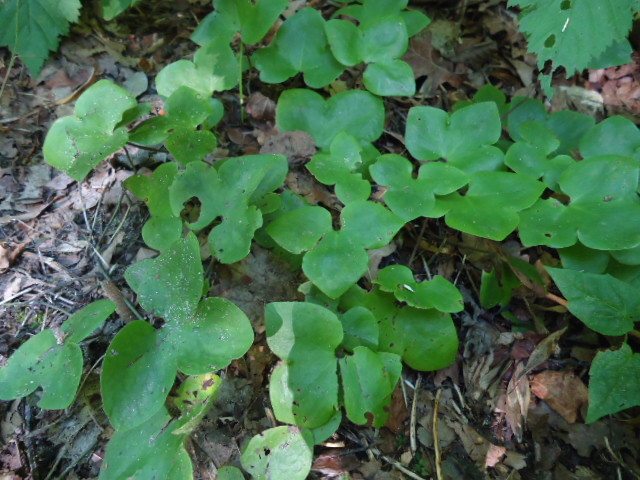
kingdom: Plantae
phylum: Tracheophyta
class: Magnoliopsida
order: Ranunculales
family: Ranunculaceae
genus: Hepatica
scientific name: Hepatica nobilis
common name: Liverleaf
